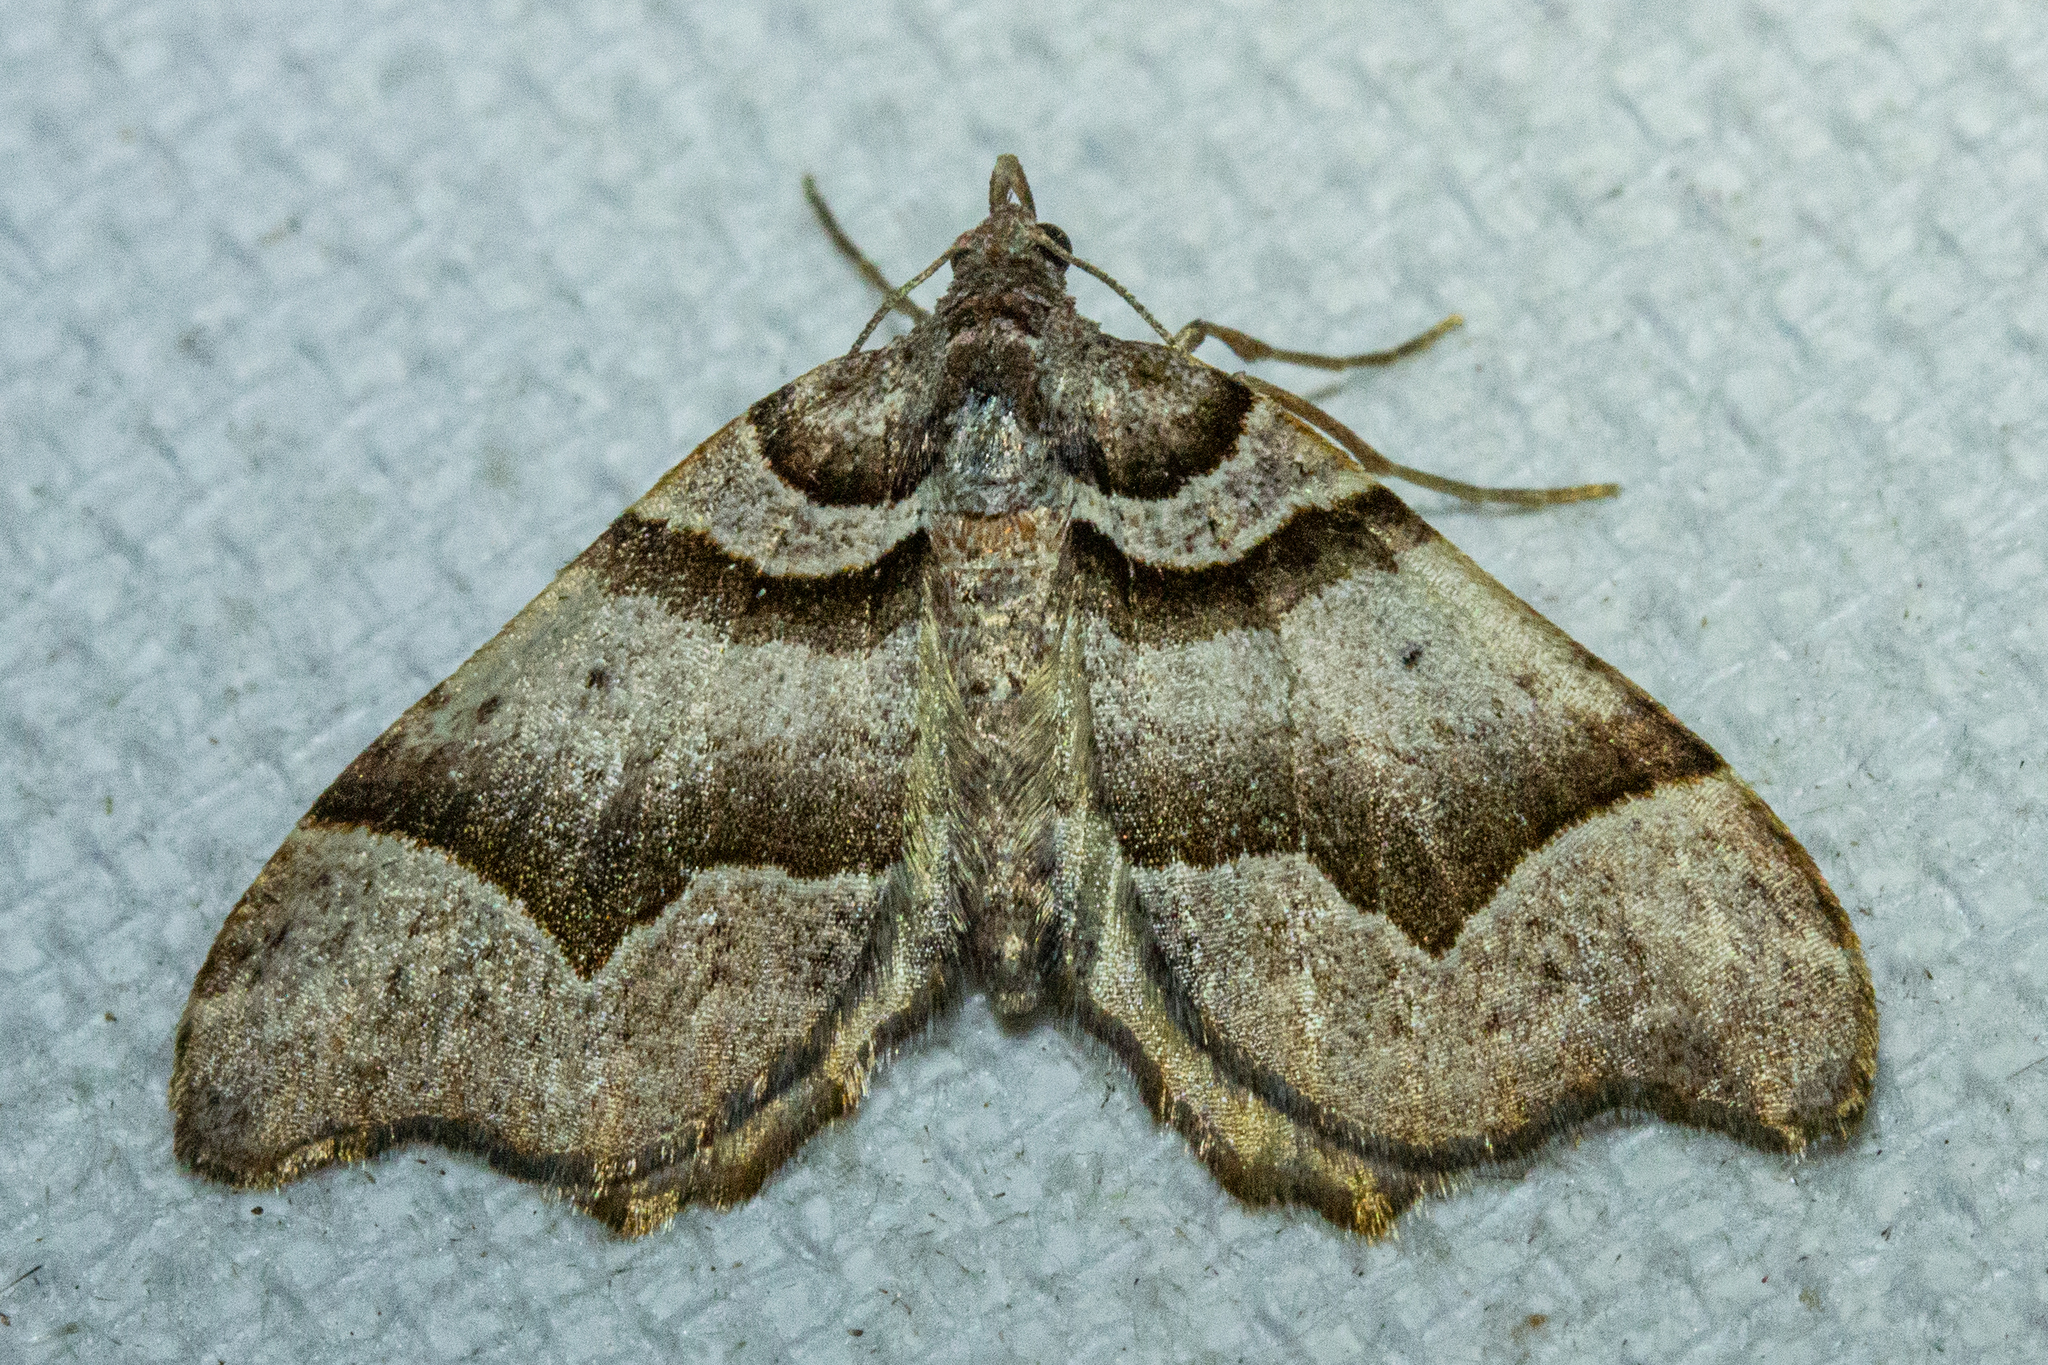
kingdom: Animalia
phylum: Arthropoda
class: Insecta
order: Lepidoptera
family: Geometridae
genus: Helastia
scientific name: Helastia triphragma
